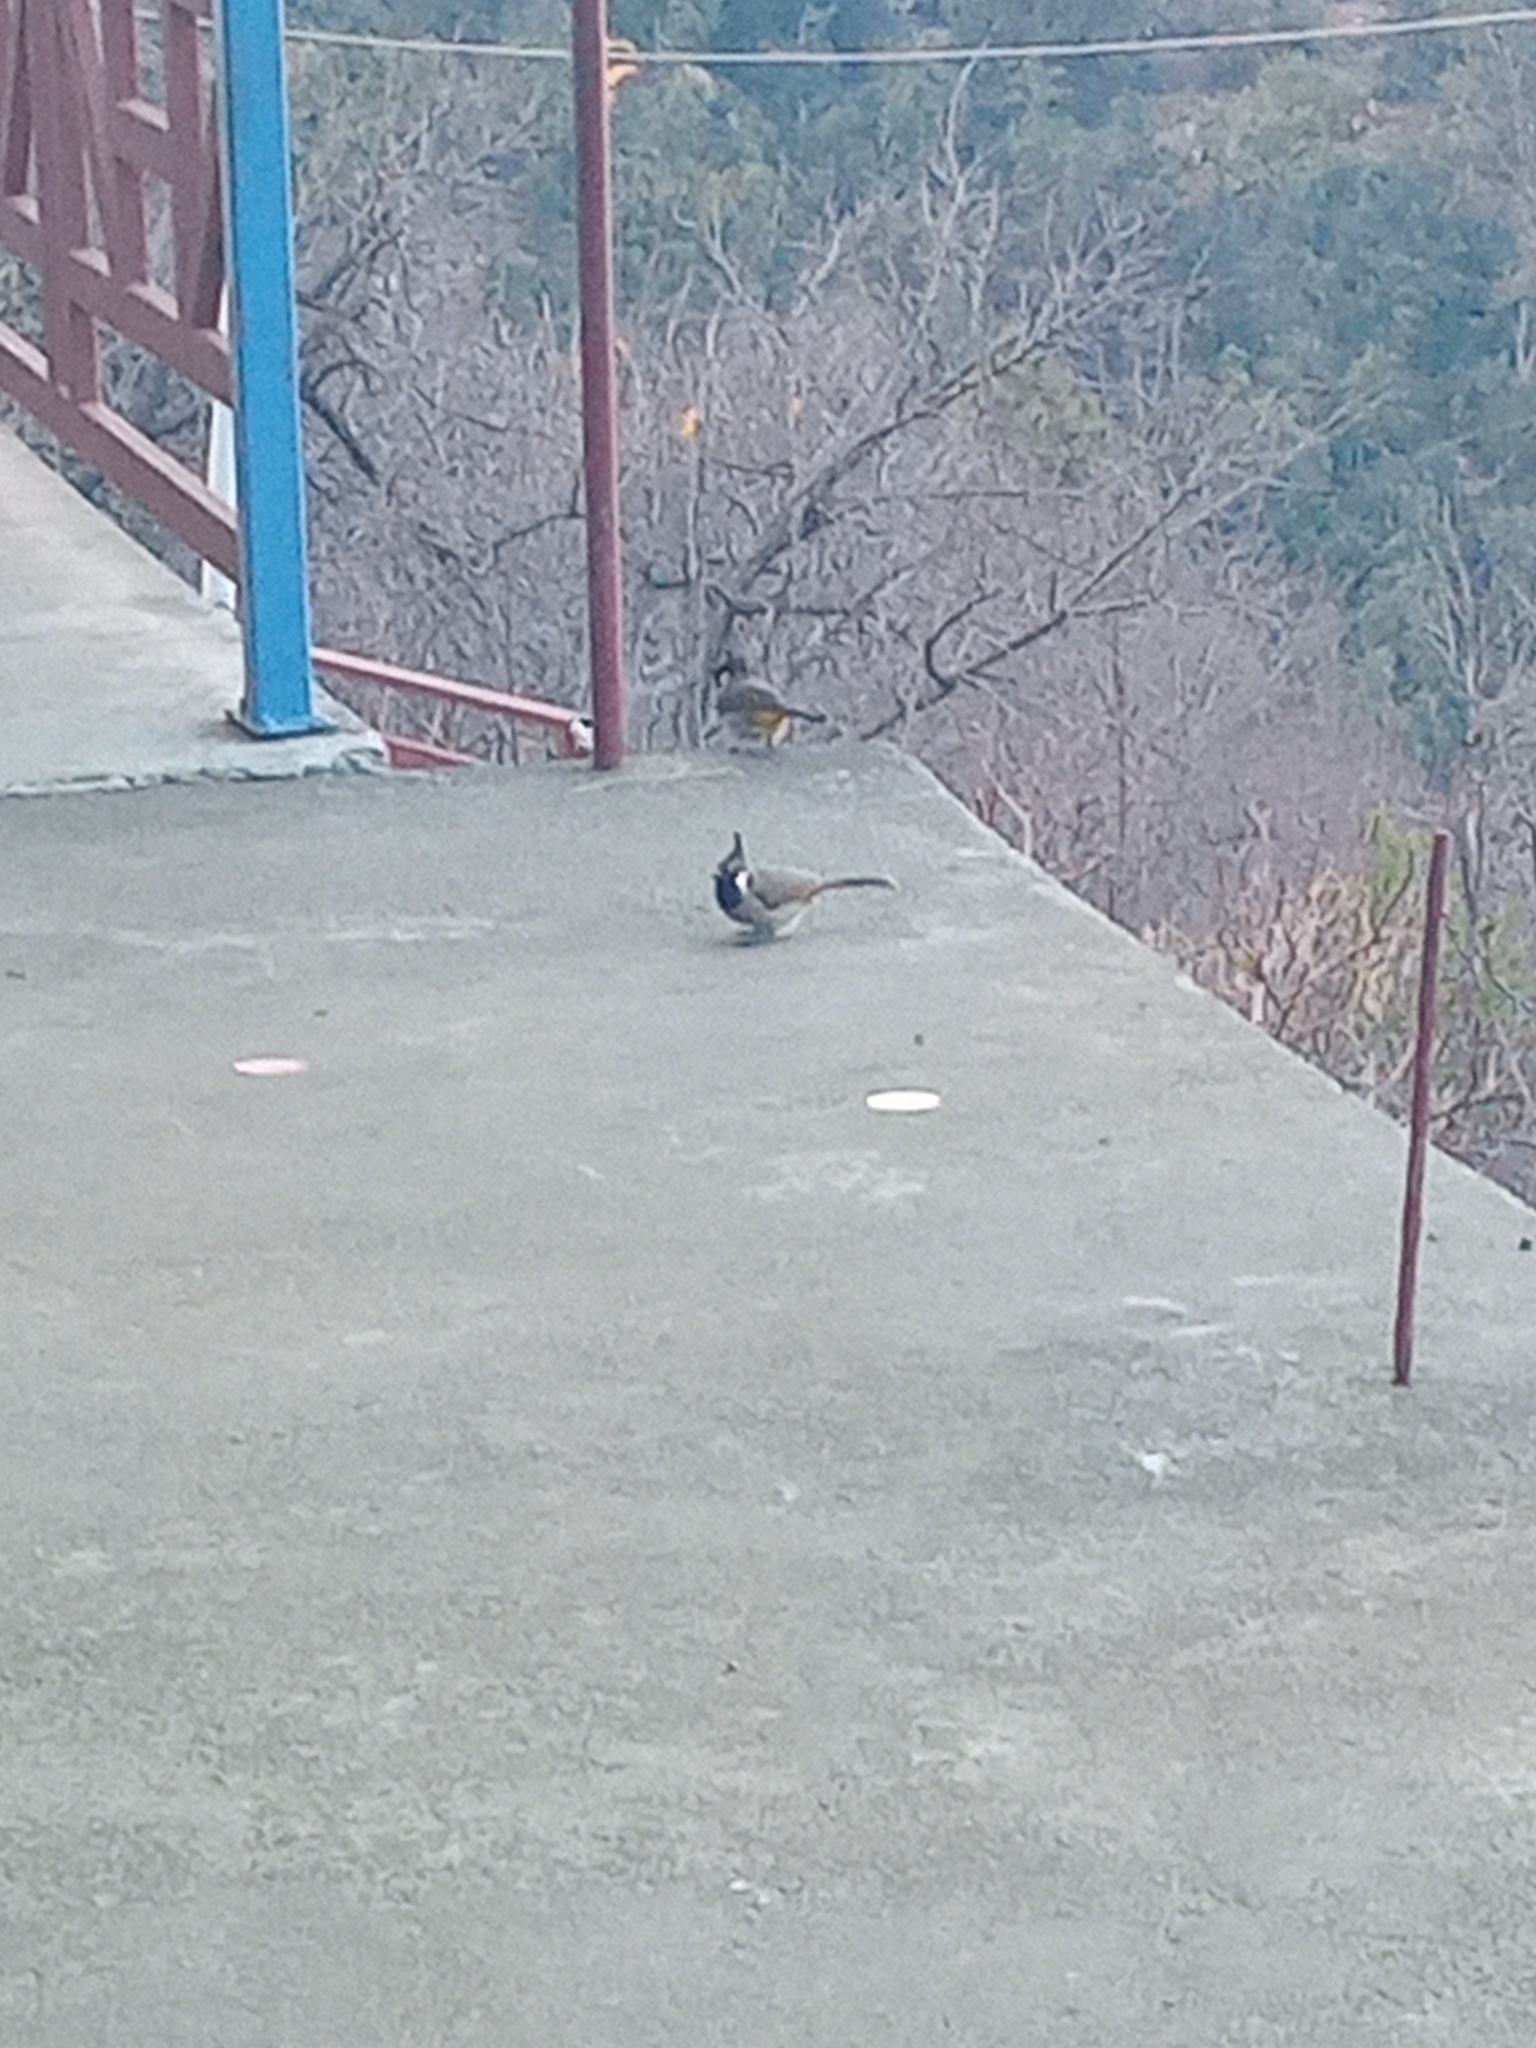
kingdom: Animalia
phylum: Chordata
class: Aves
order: Passeriformes
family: Pycnonotidae
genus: Pycnonotus
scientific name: Pycnonotus leucogenys
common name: Himalayan bulbul
